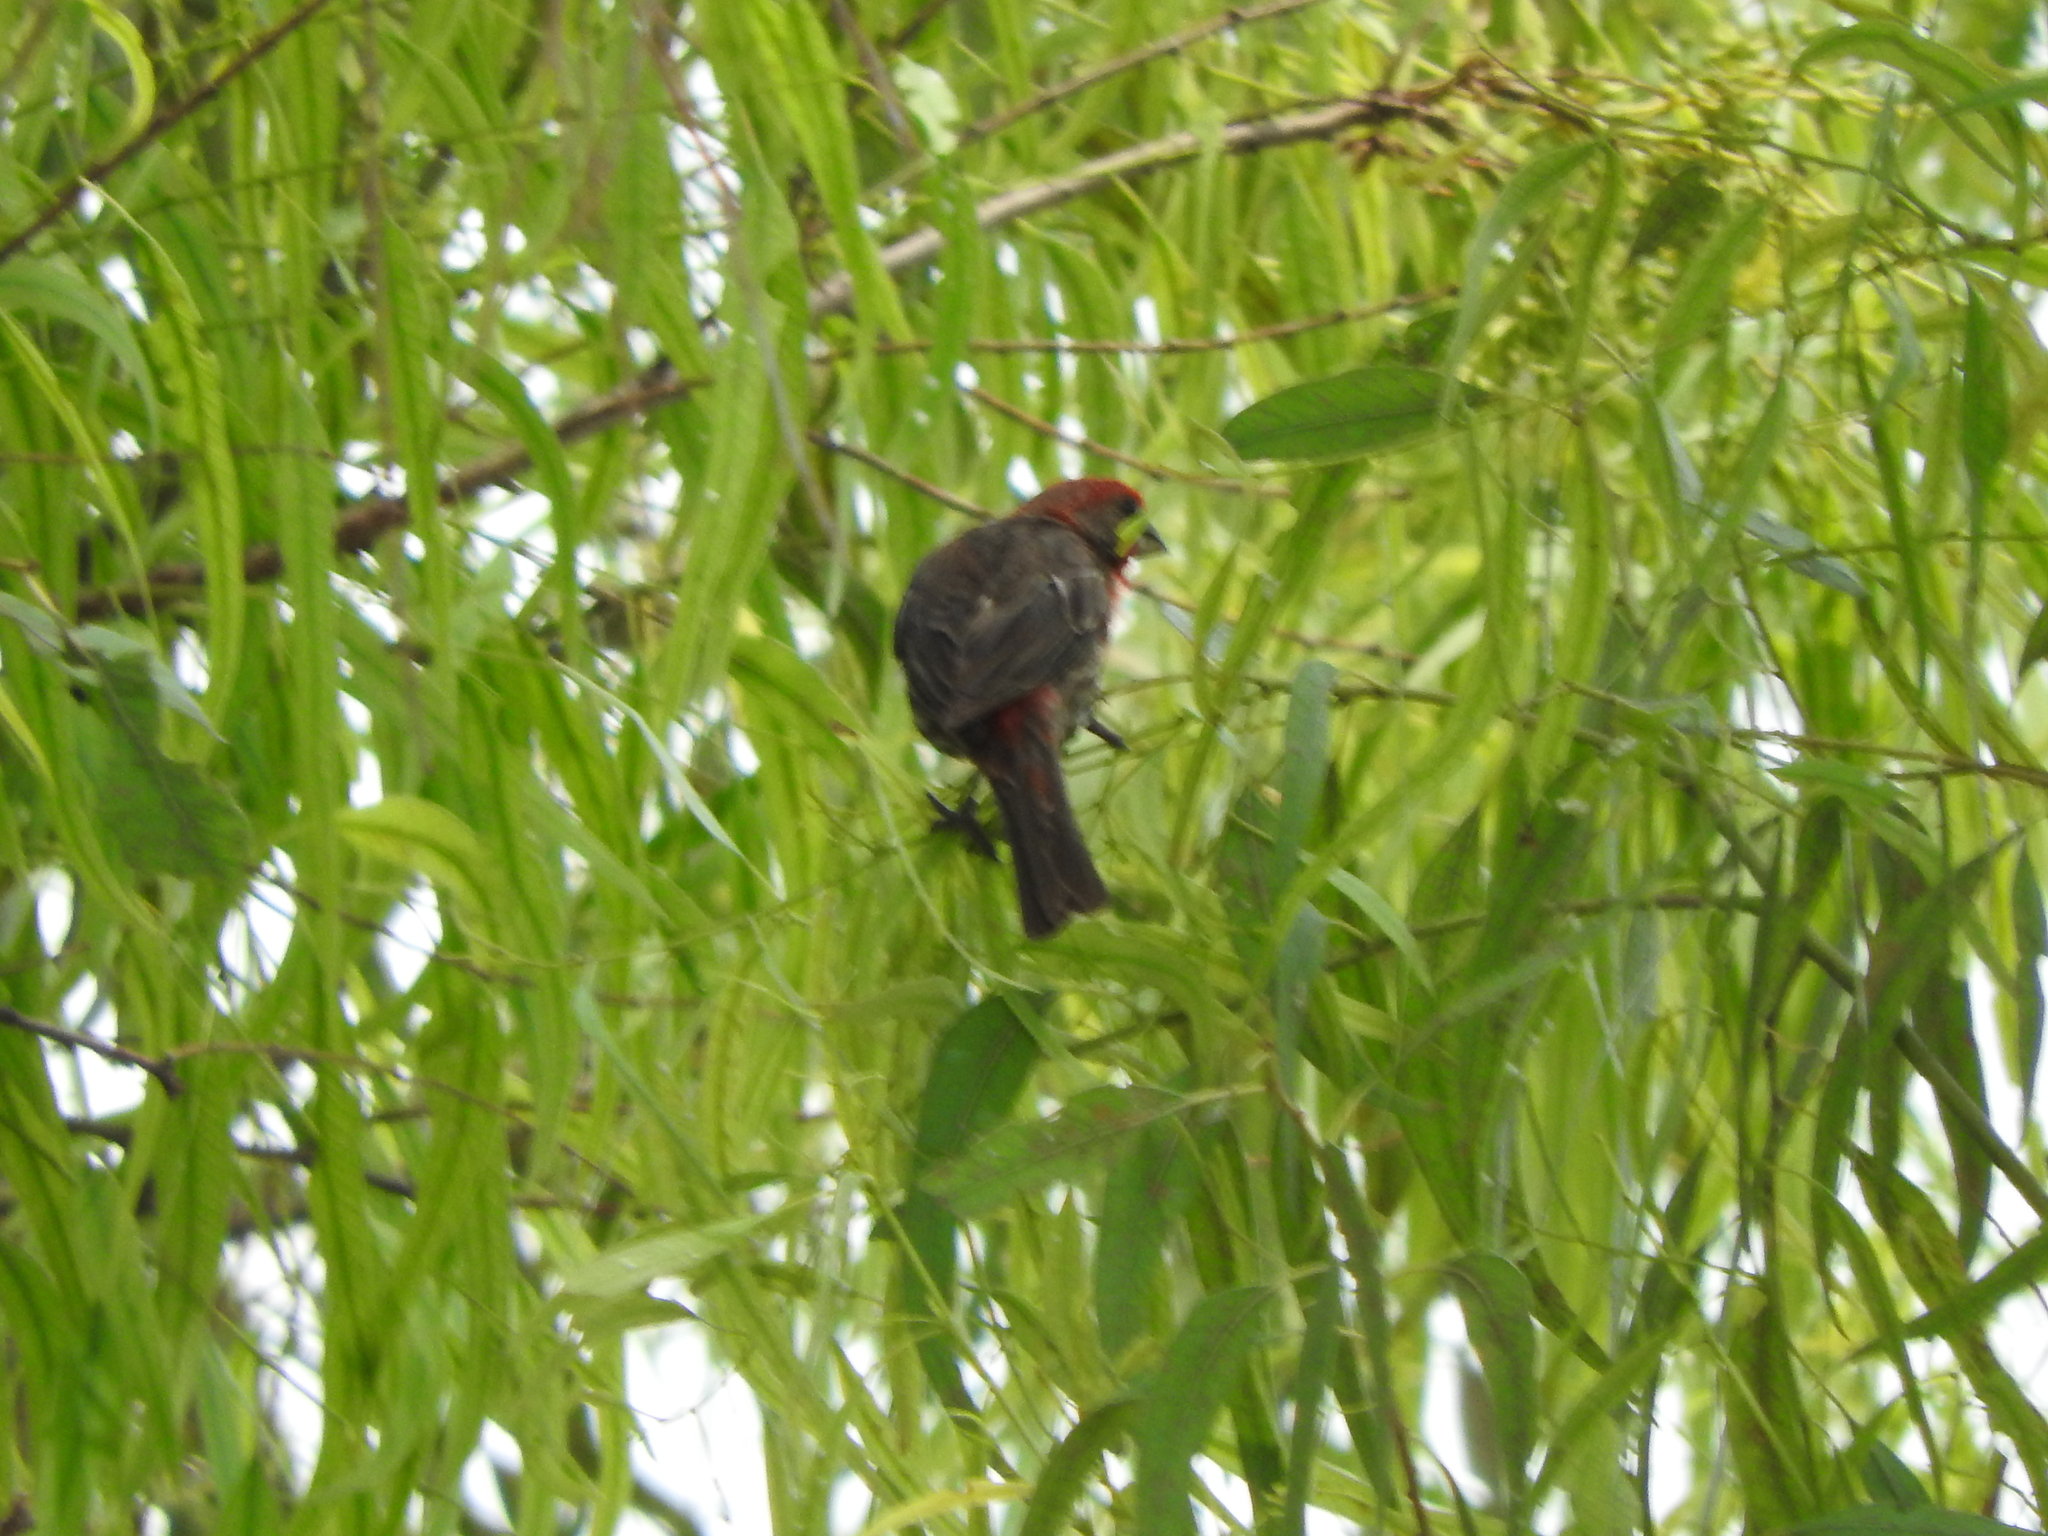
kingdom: Animalia
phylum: Chordata
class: Aves
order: Passeriformes
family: Fringillidae
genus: Haemorhous
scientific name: Haemorhous mexicanus
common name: House finch
